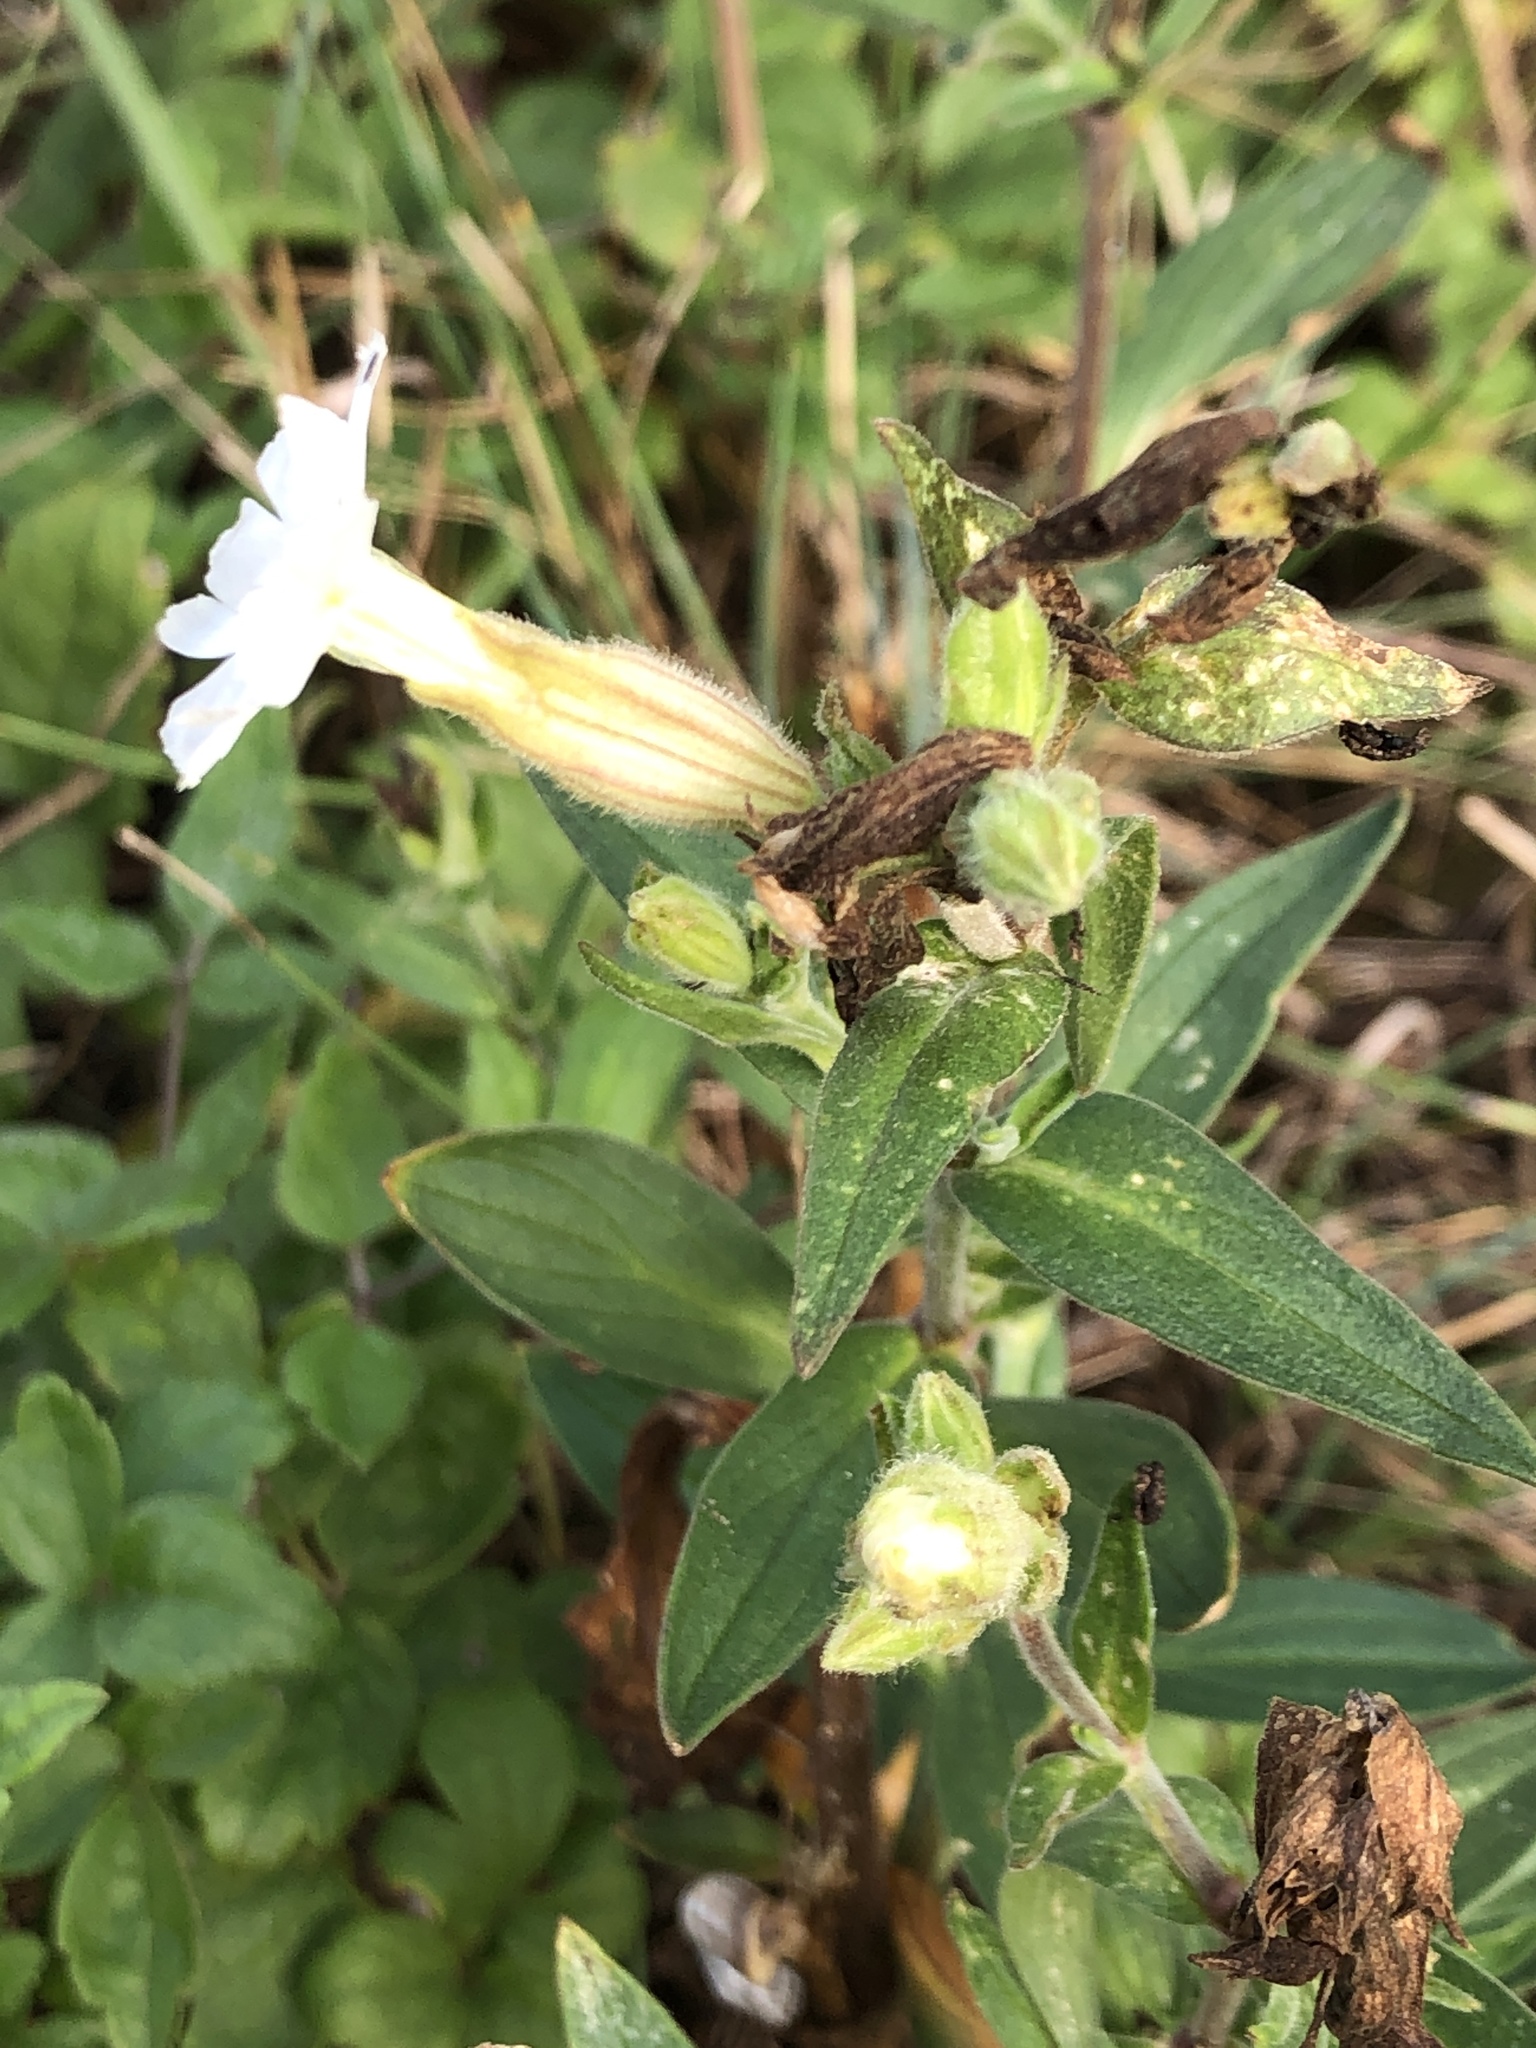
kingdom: Plantae
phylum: Tracheophyta
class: Magnoliopsida
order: Caryophyllales
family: Caryophyllaceae
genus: Silene
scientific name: Silene latifolia
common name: White campion
